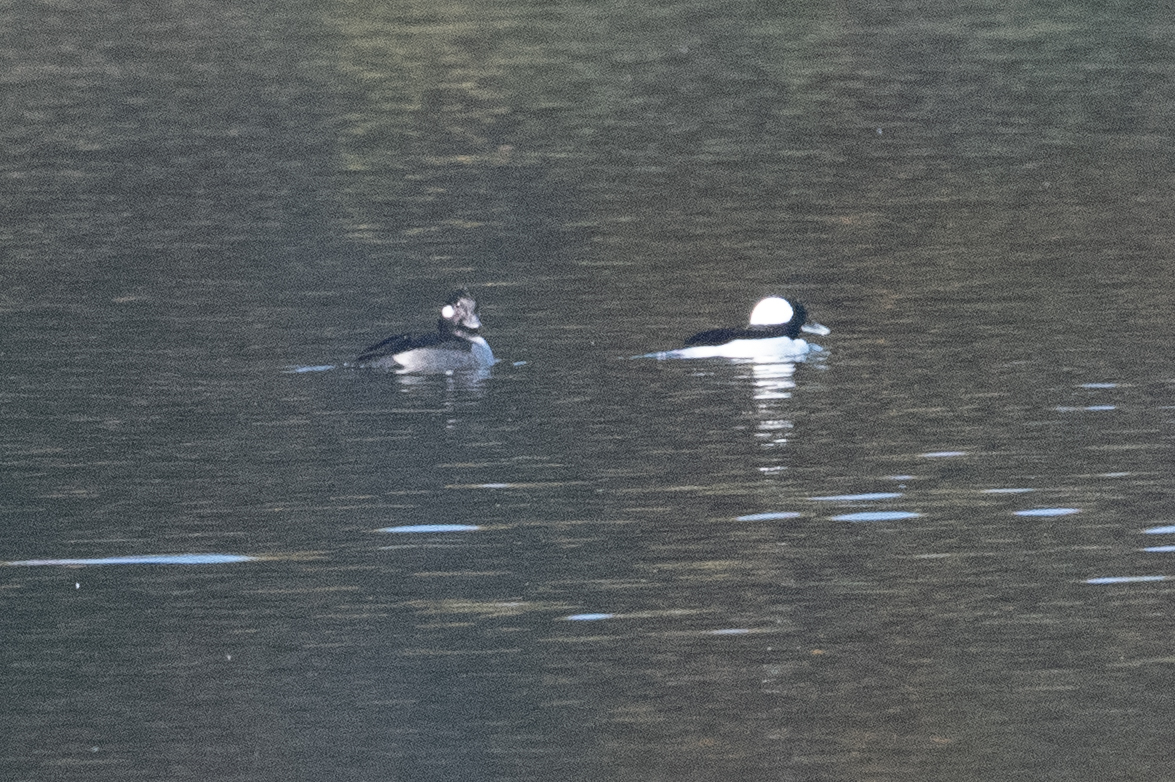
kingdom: Animalia
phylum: Chordata
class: Aves
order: Anseriformes
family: Anatidae
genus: Bucephala
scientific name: Bucephala albeola
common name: Bufflehead
